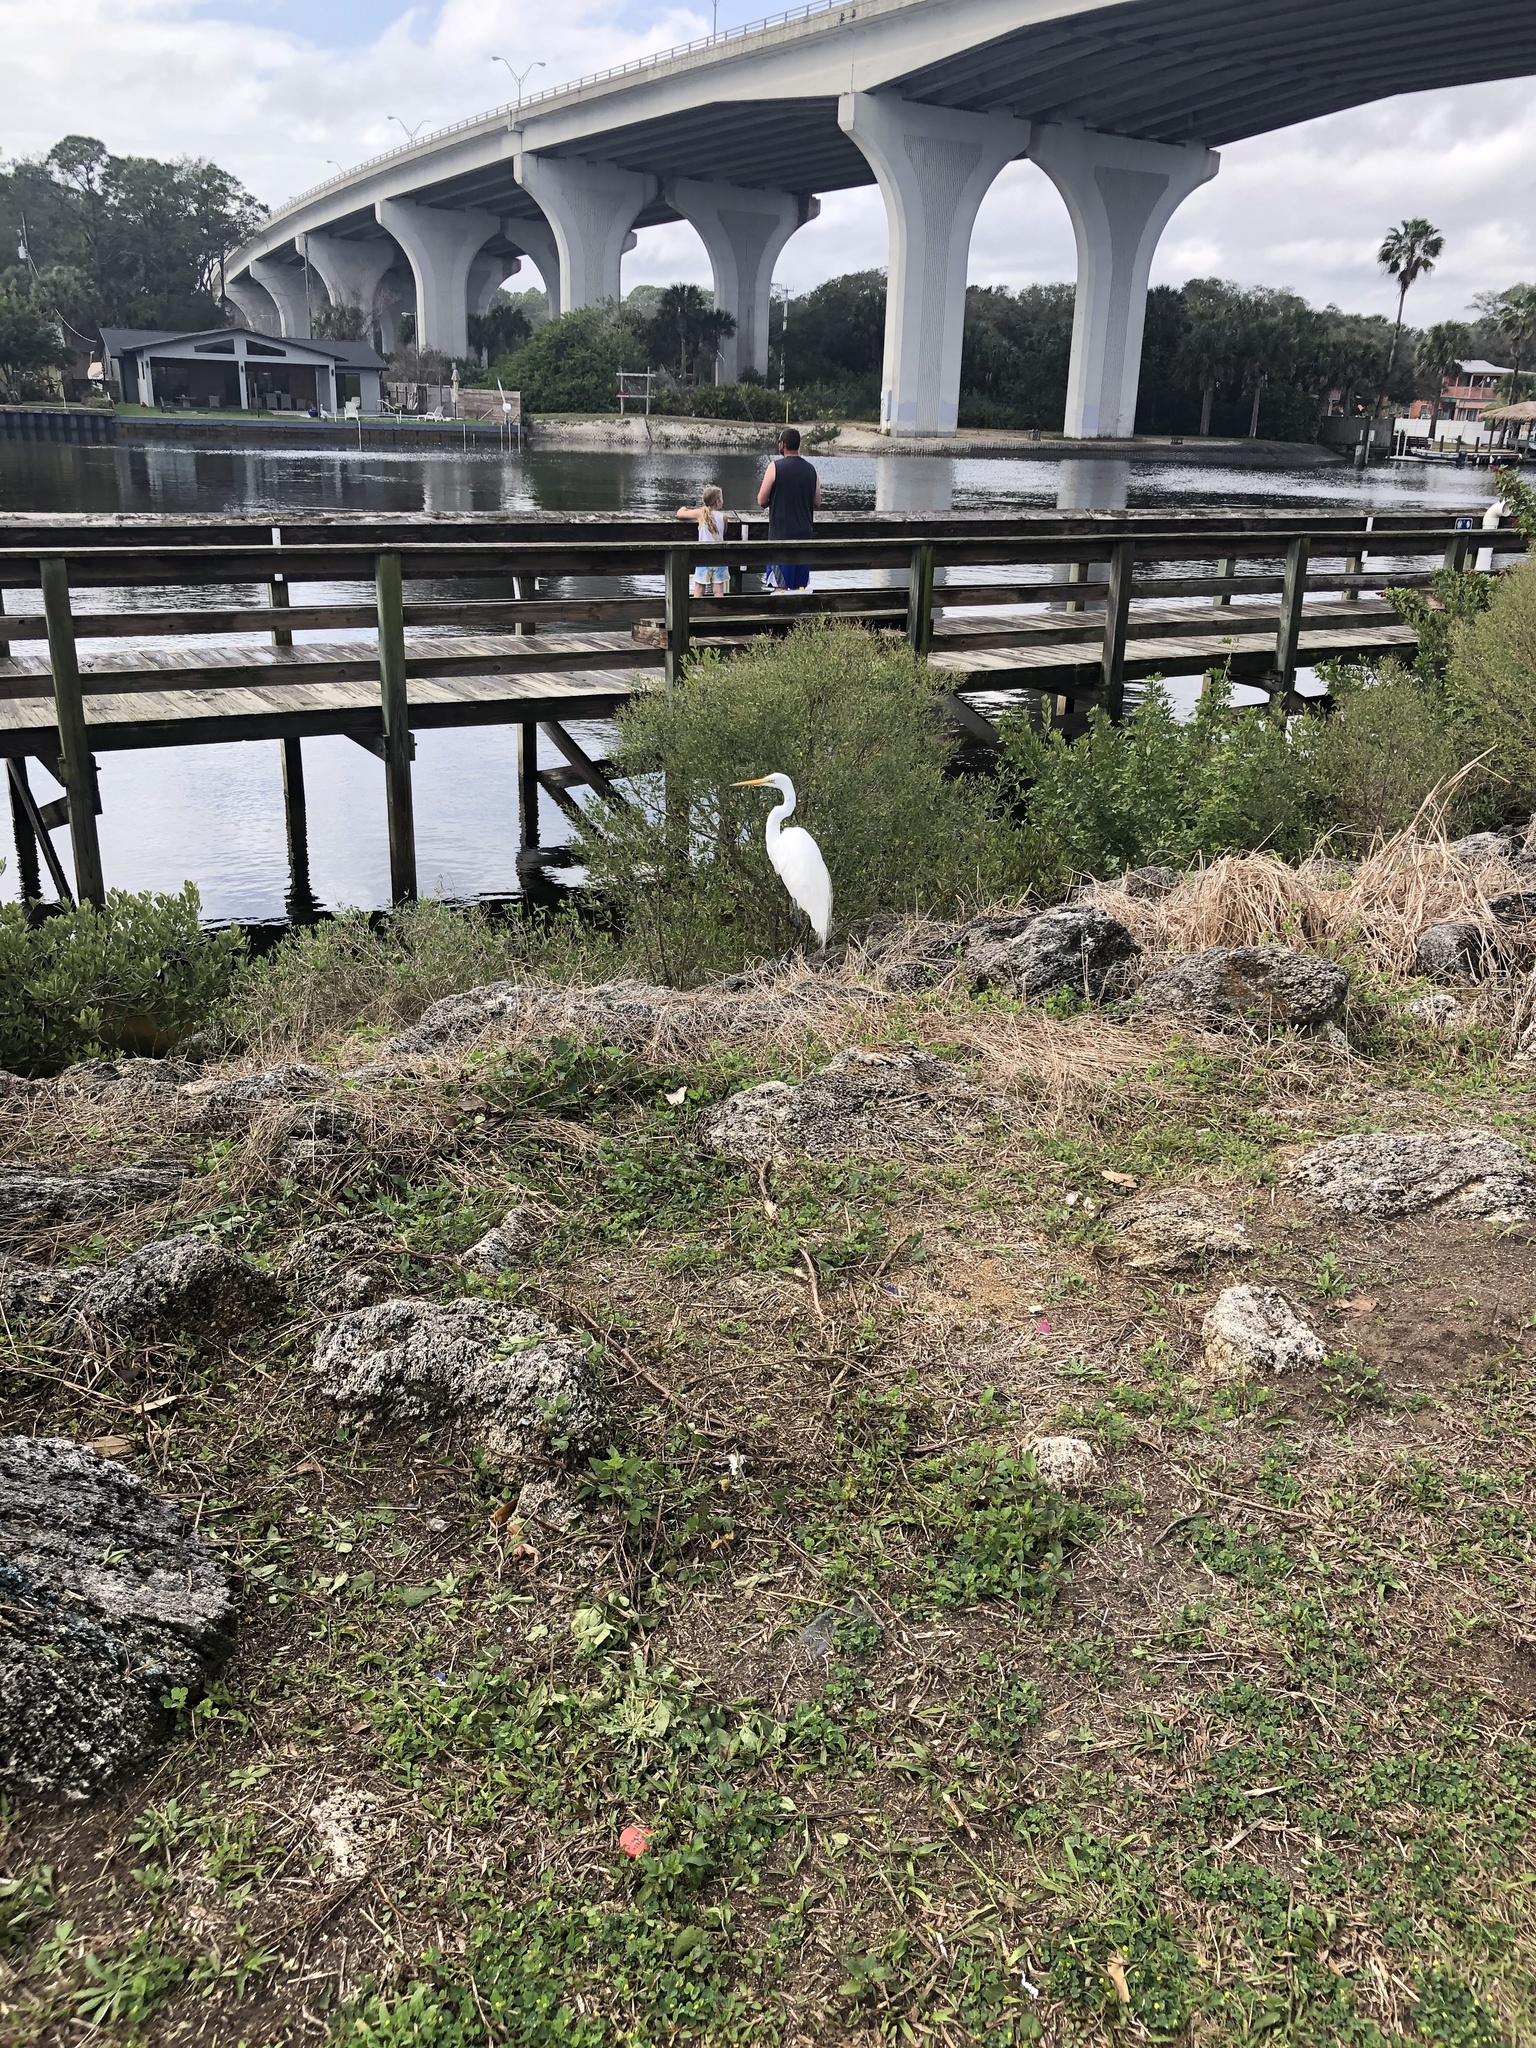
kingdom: Animalia
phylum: Chordata
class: Aves
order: Pelecaniformes
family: Ardeidae
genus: Ardea
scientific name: Ardea alba
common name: Great egret
